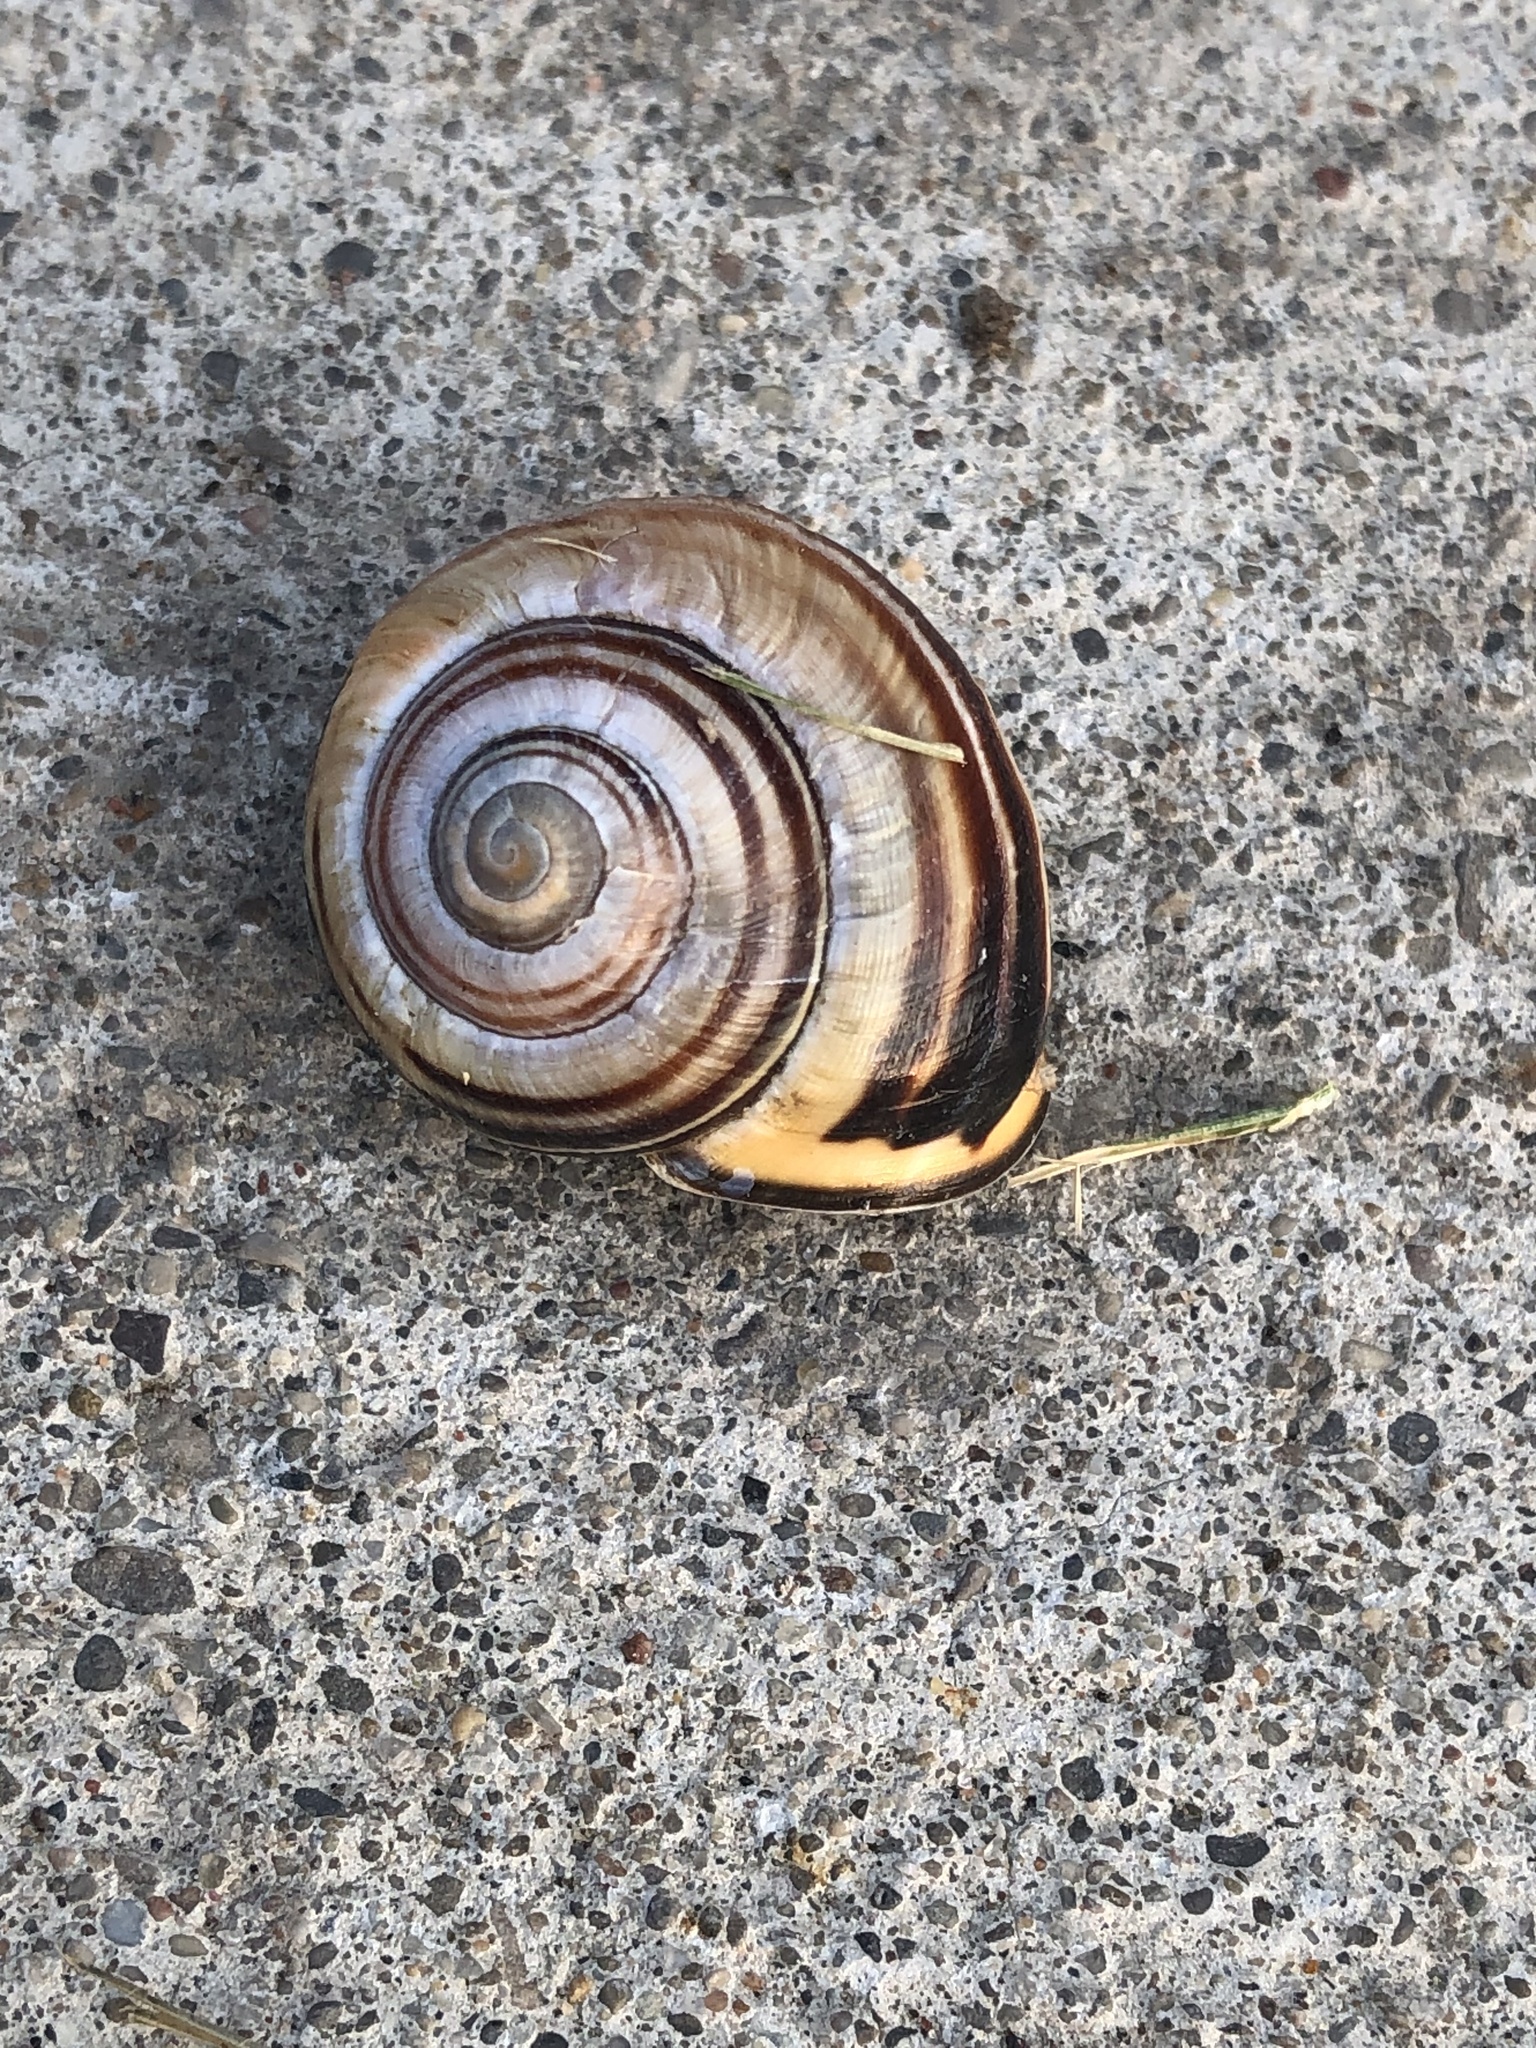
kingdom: Animalia
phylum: Mollusca
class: Gastropoda
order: Stylommatophora
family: Helicidae
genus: Cepaea
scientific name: Cepaea nemoralis
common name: Grovesnail
